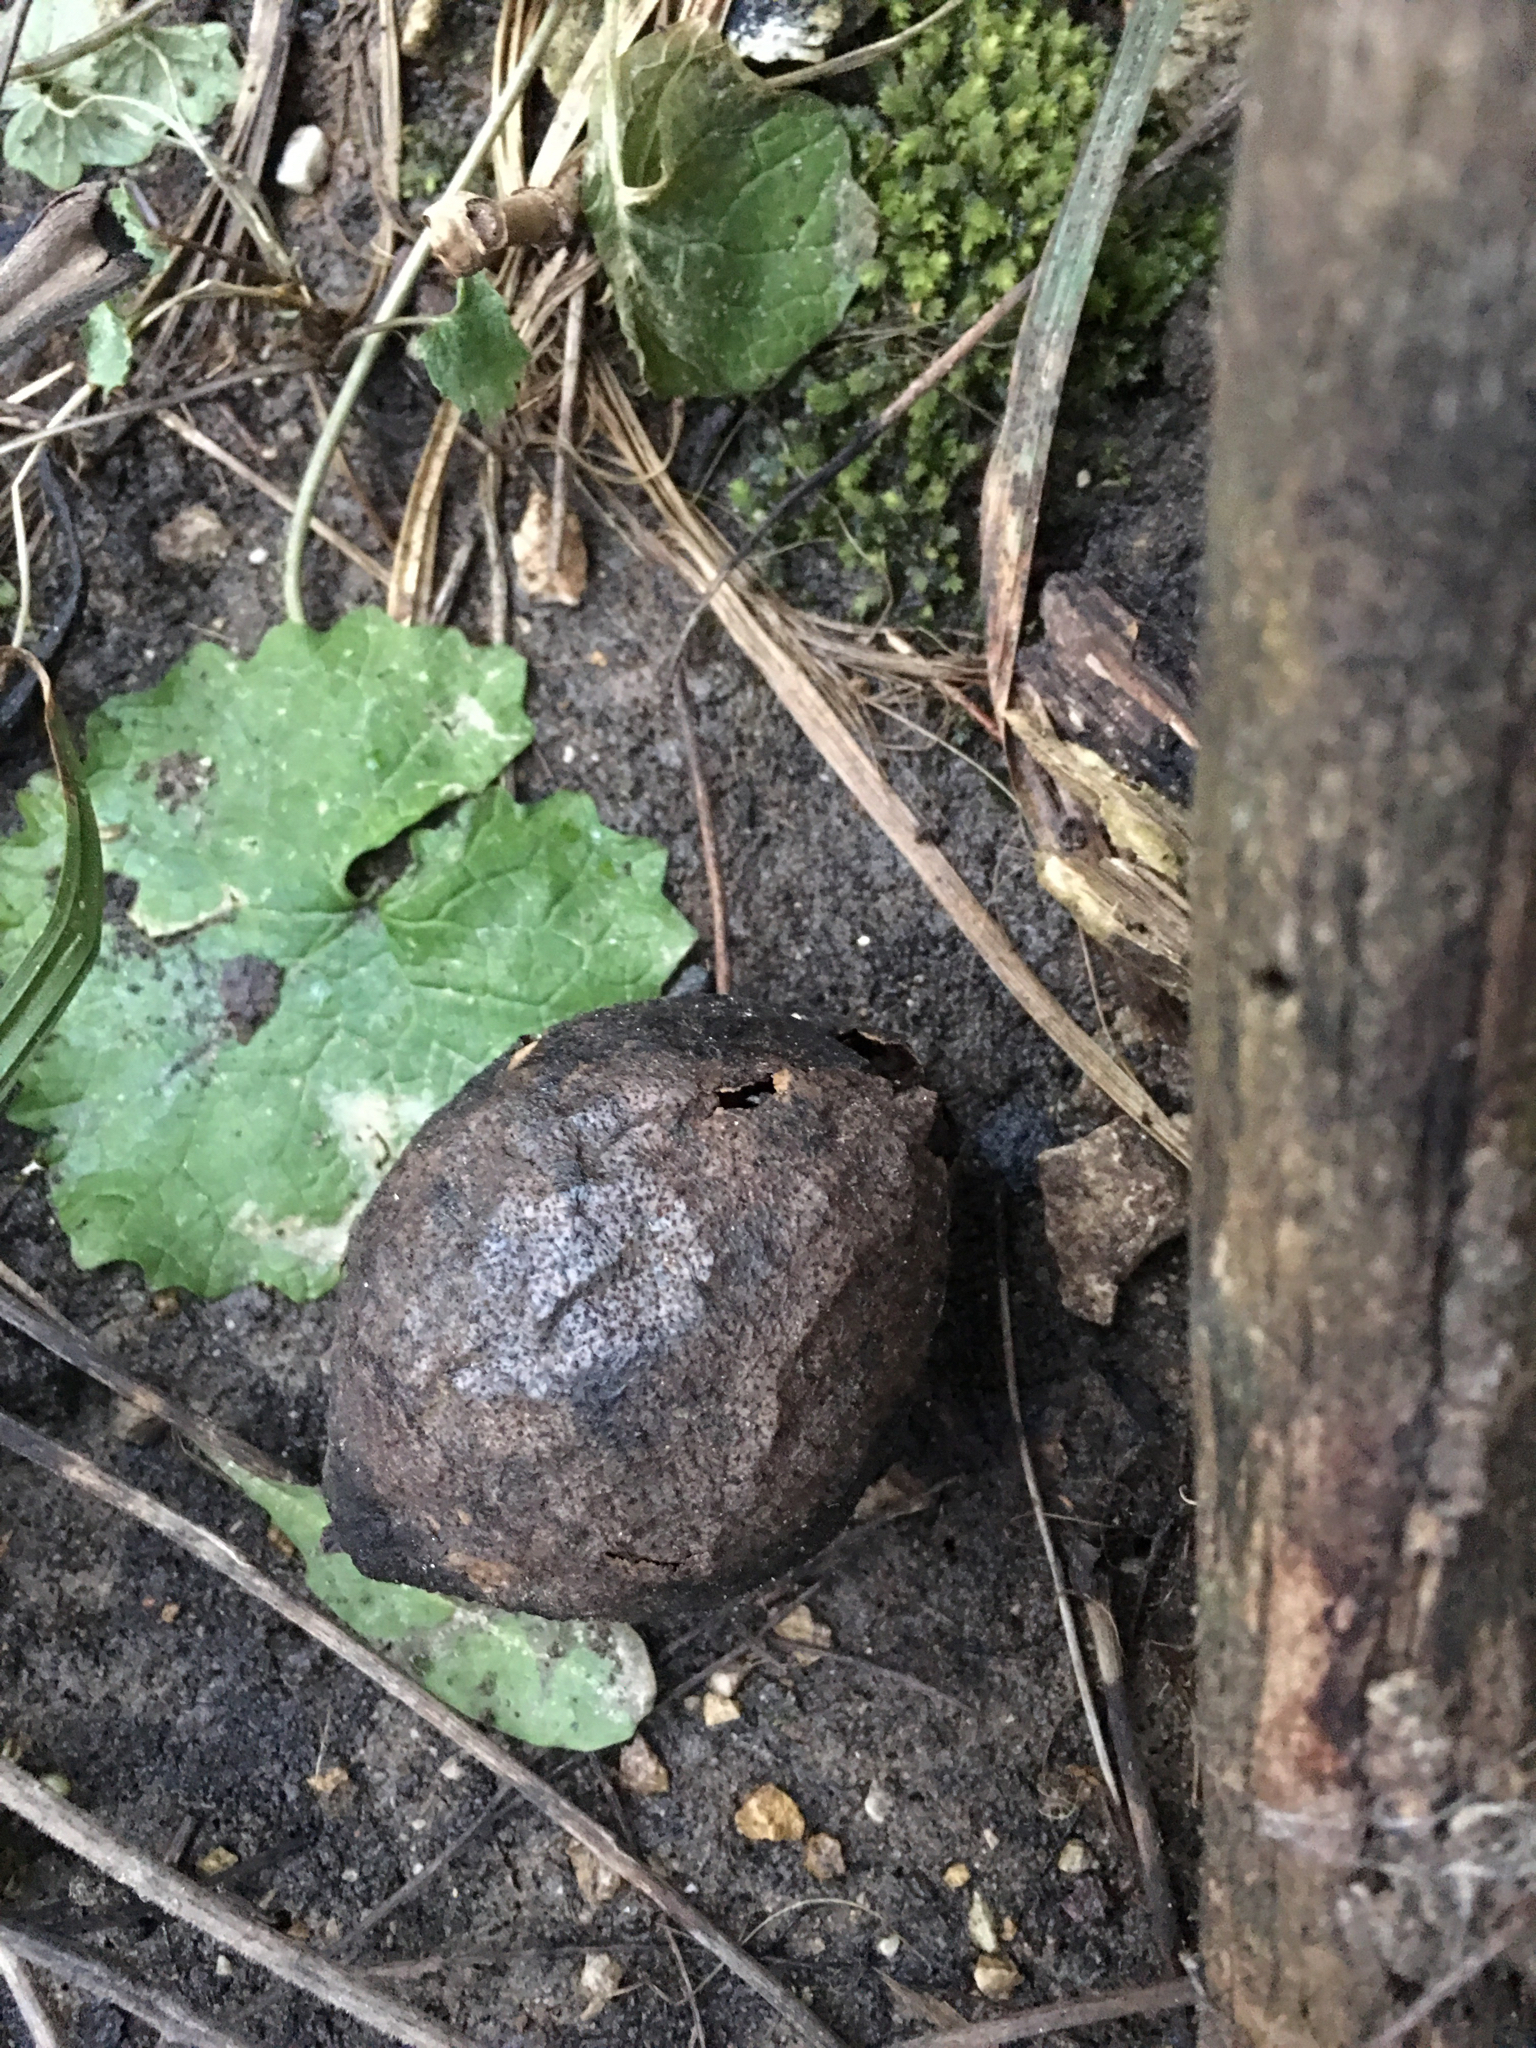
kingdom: Plantae
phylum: Tracheophyta
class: Magnoliopsida
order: Fagales
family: Juglandaceae
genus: Juglans
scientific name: Juglans nigra
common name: Black walnut
